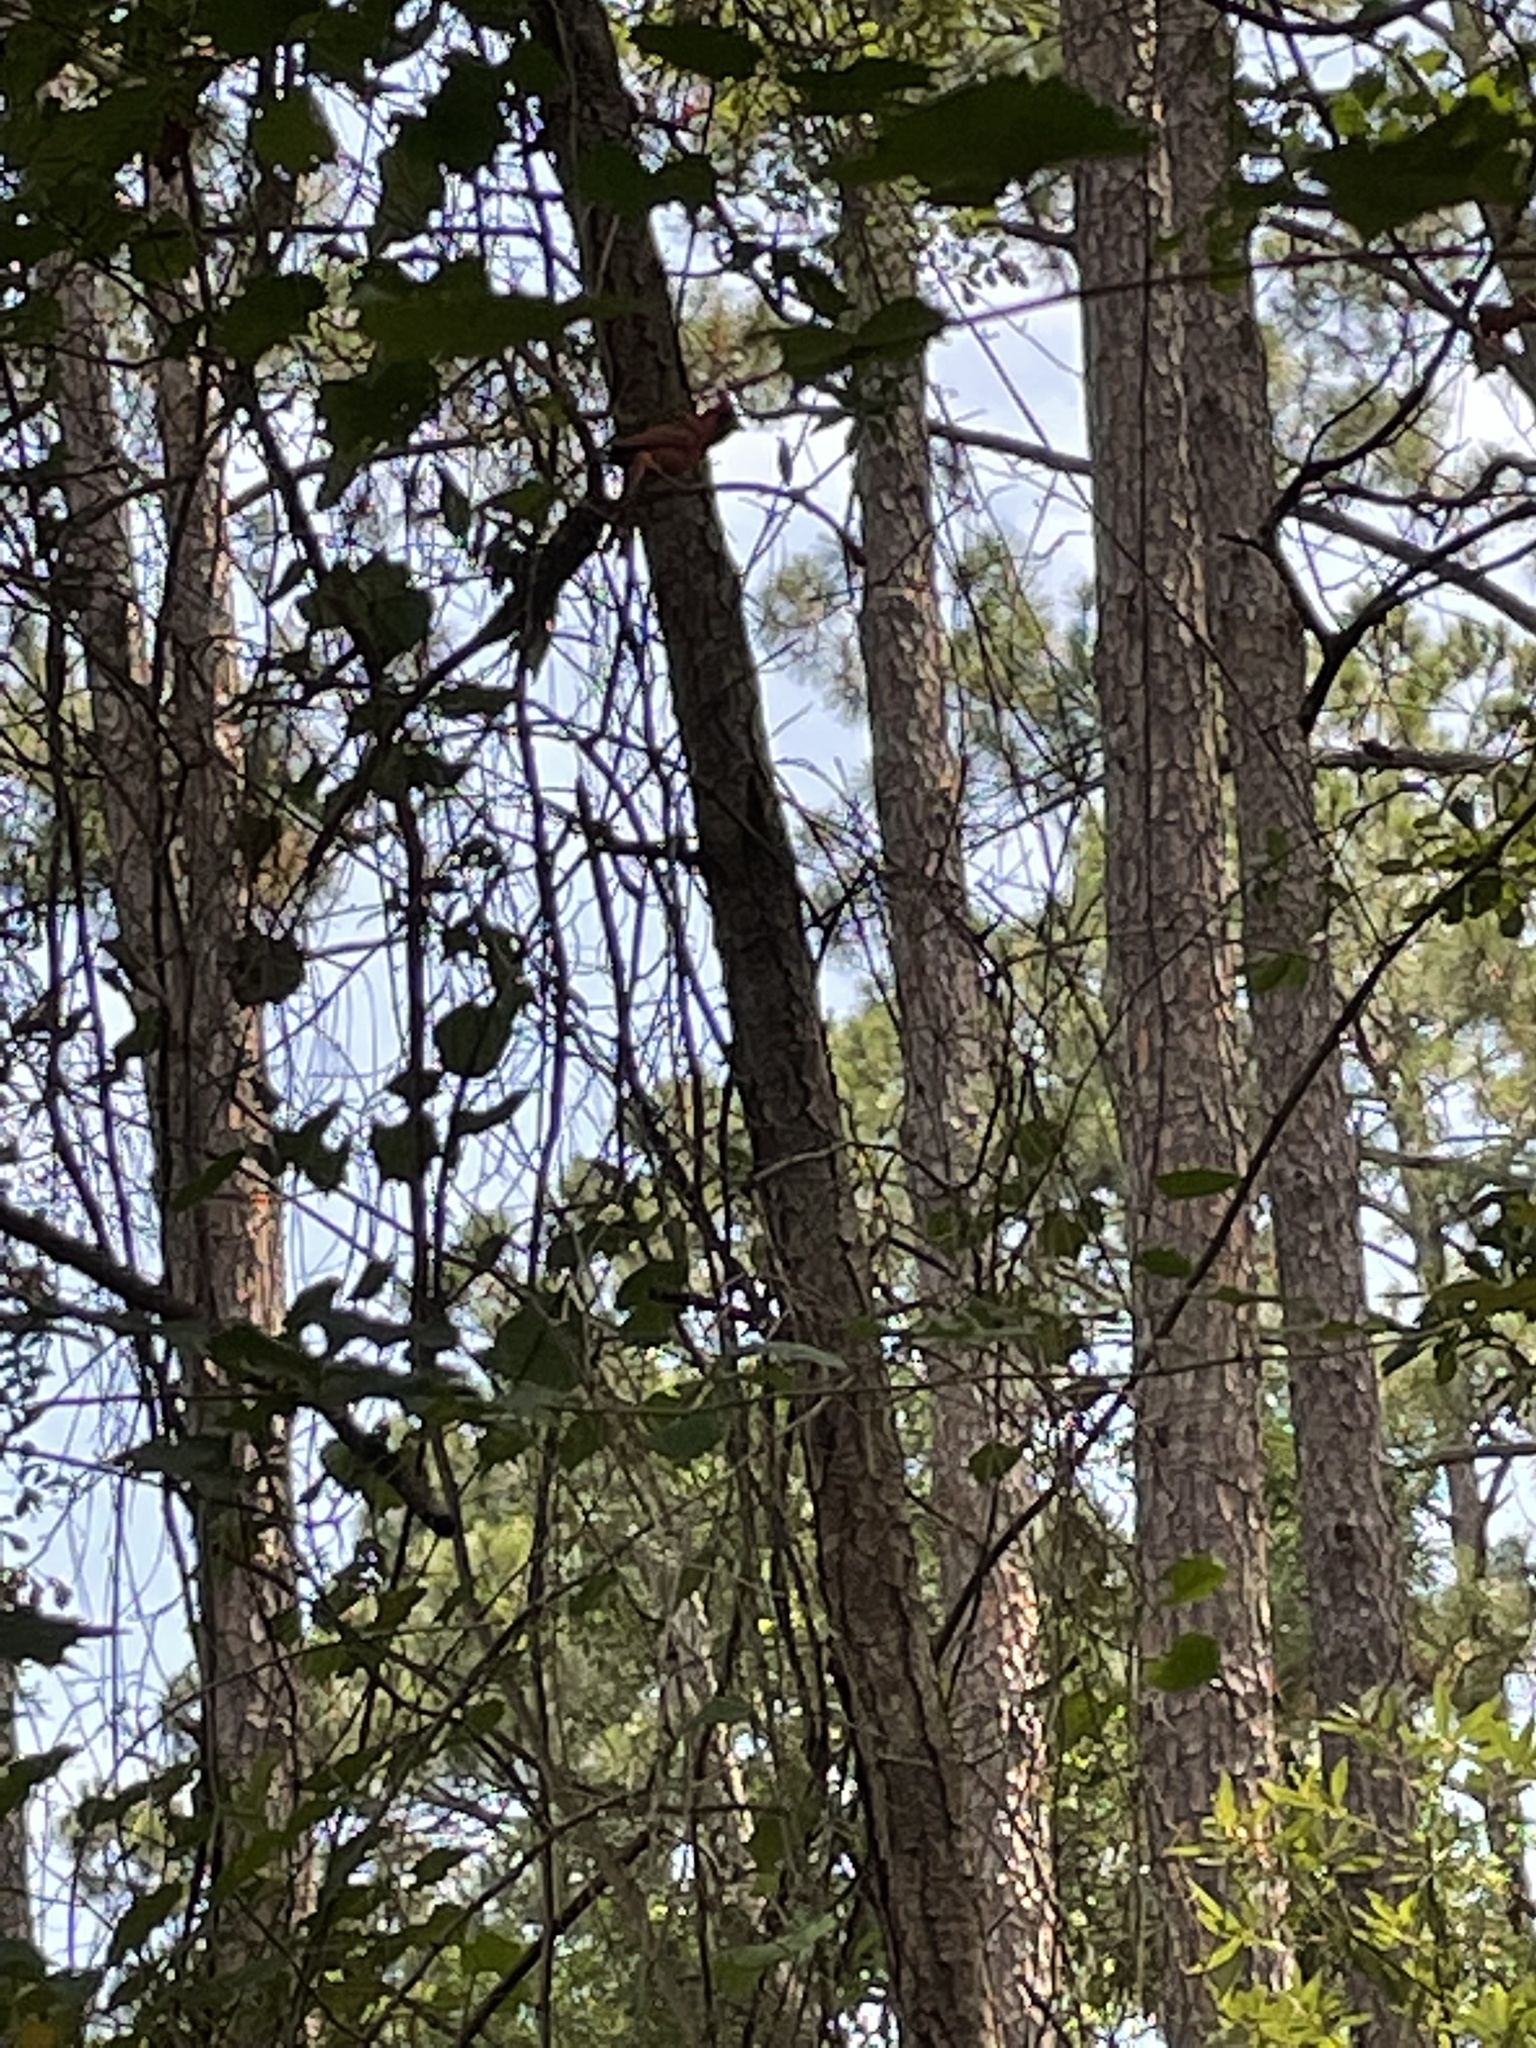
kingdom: Animalia
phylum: Chordata
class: Aves
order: Passeriformes
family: Cardinalidae
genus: Cardinalis
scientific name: Cardinalis cardinalis
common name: Northern cardinal
